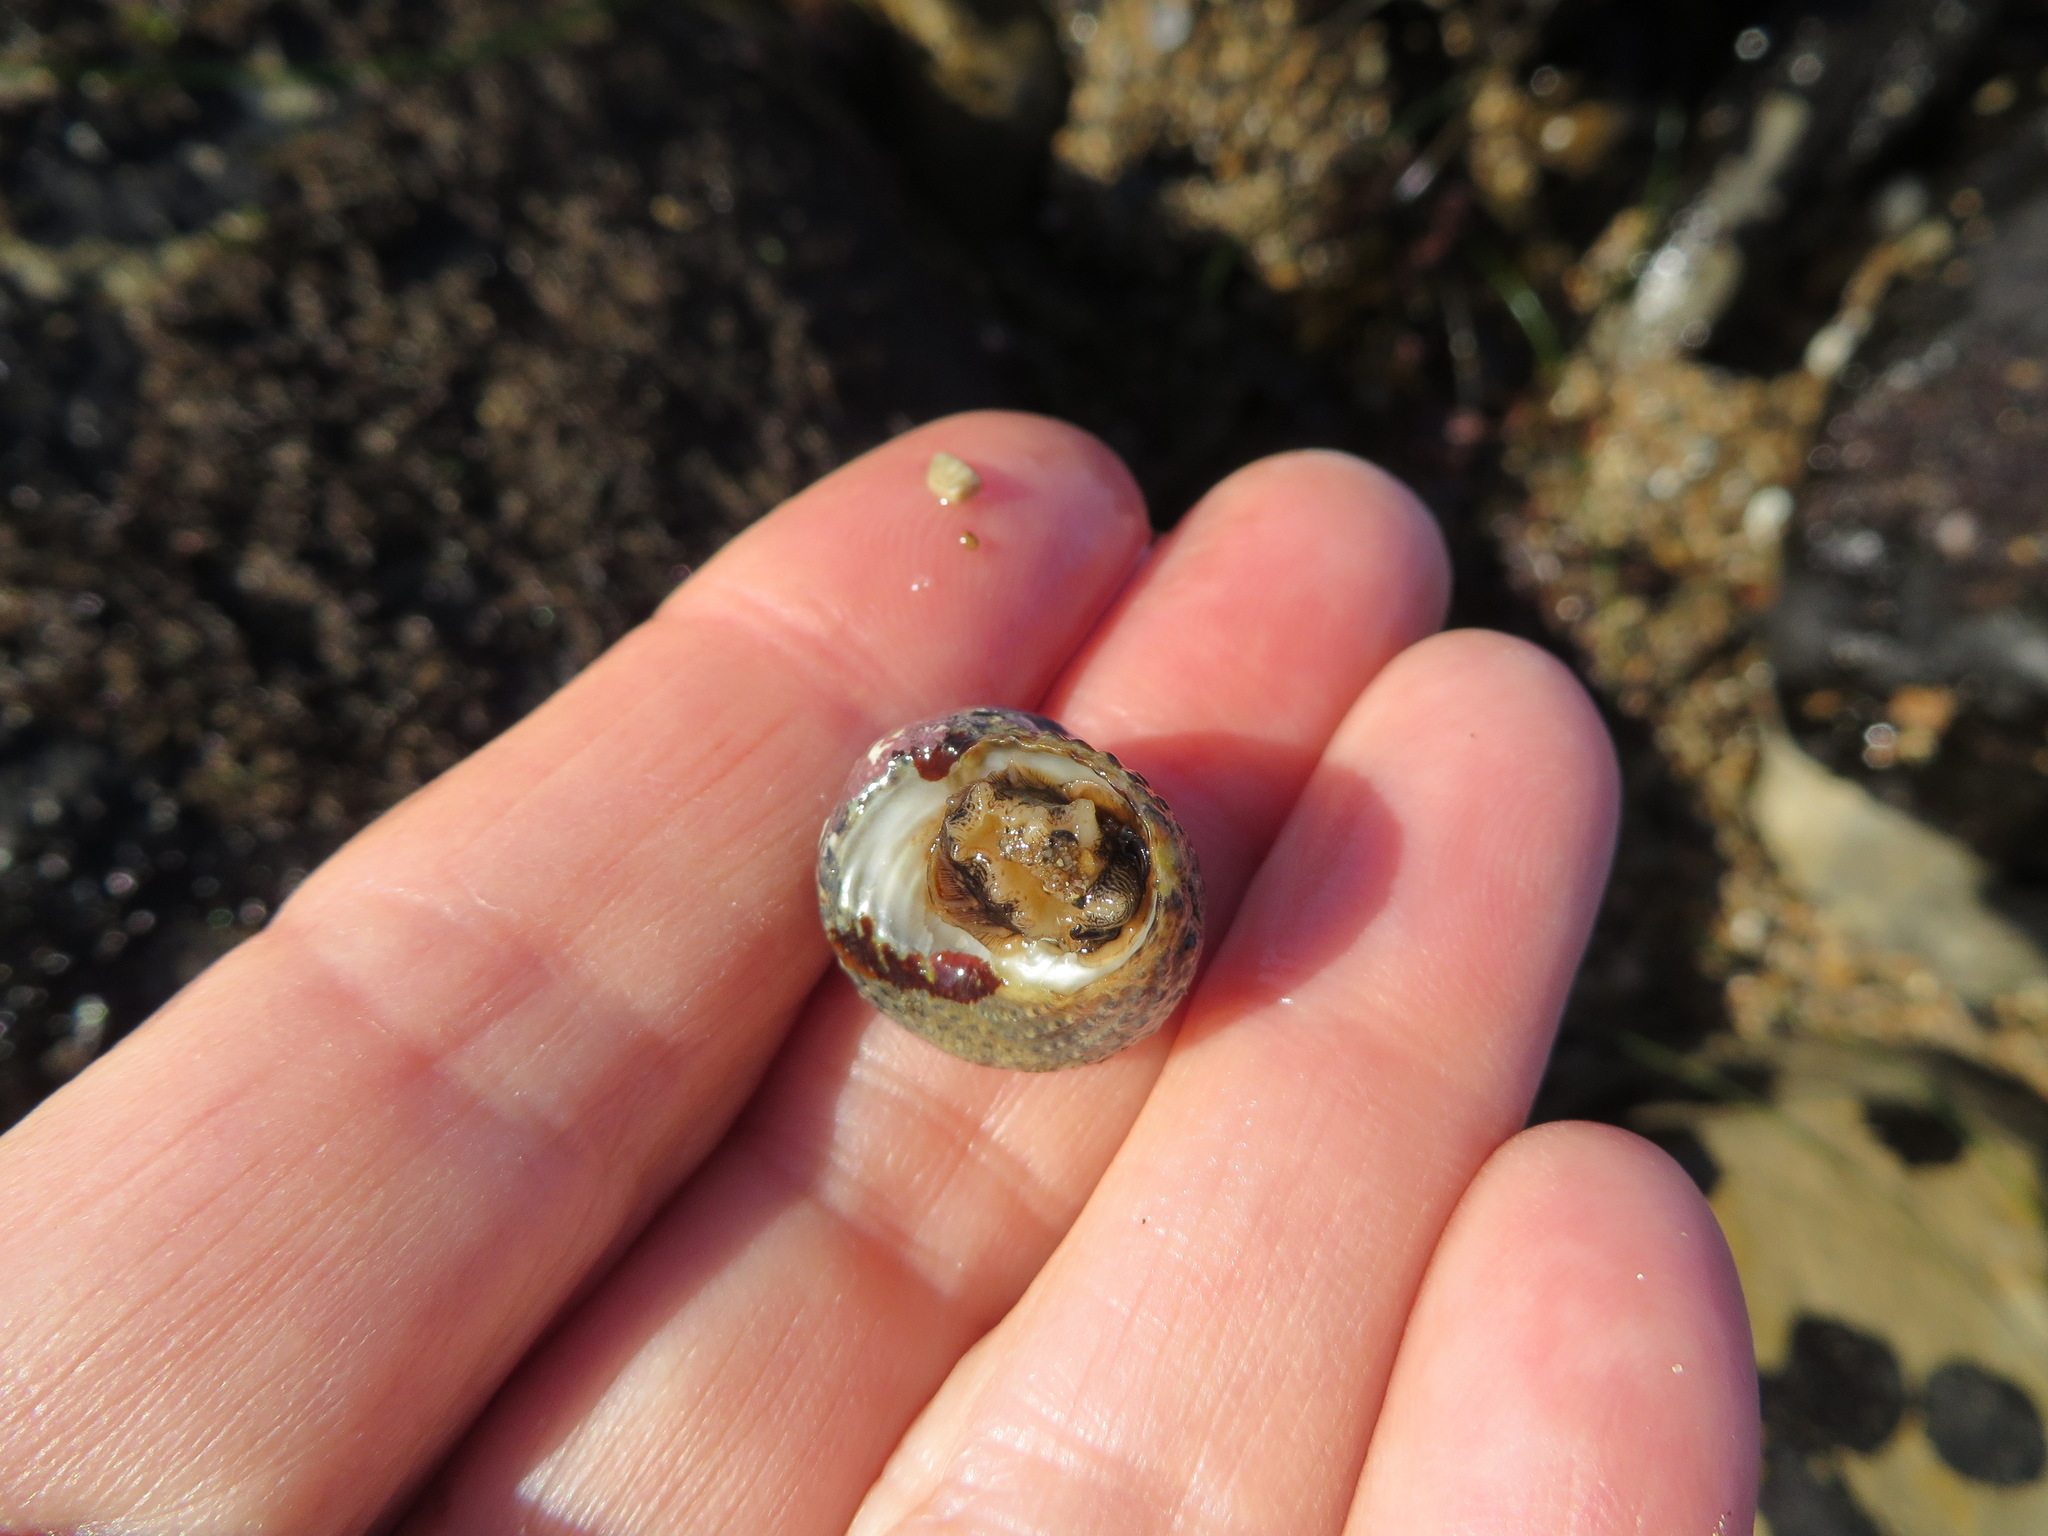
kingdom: Animalia
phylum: Mollusca
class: Gastropoda
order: Trochida
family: Tegulidae
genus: Tegula
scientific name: Tegula eiseni
